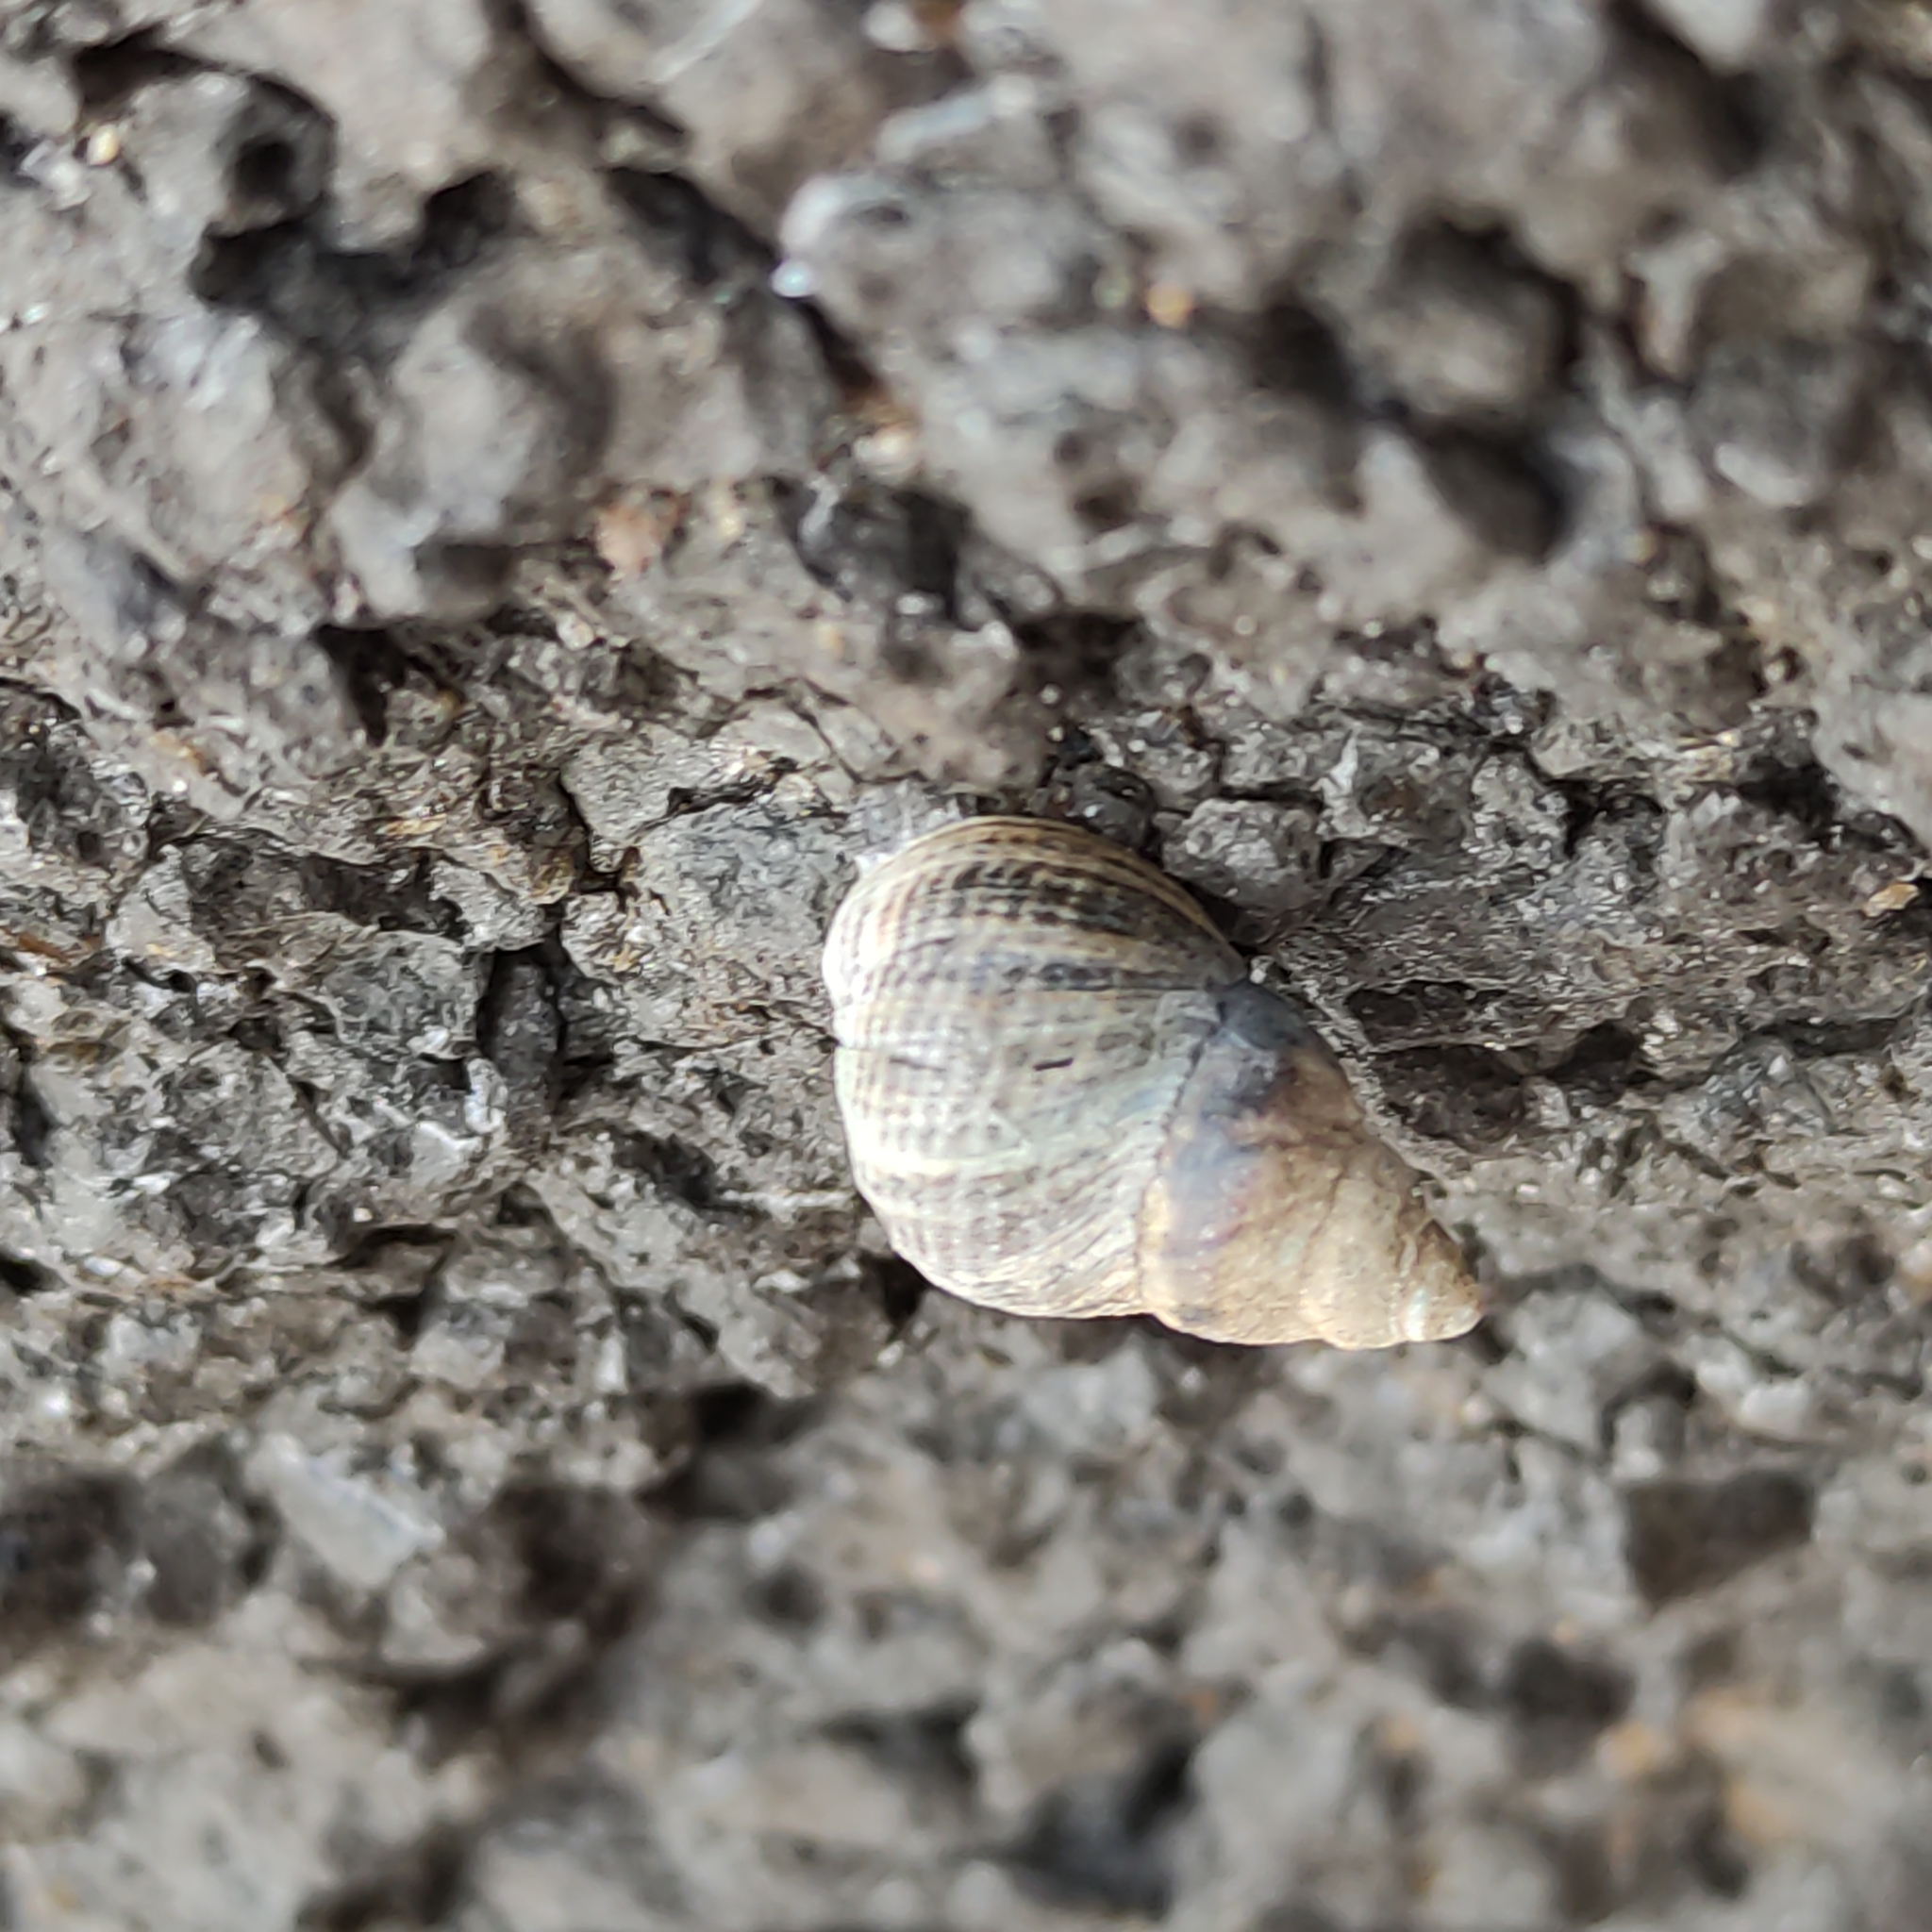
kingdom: Animalia
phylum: Mollusca
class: Gastropoda
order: Littorinimorpha
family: Littorinidae
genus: Austrolittorina
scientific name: Austrolittorina cincta
